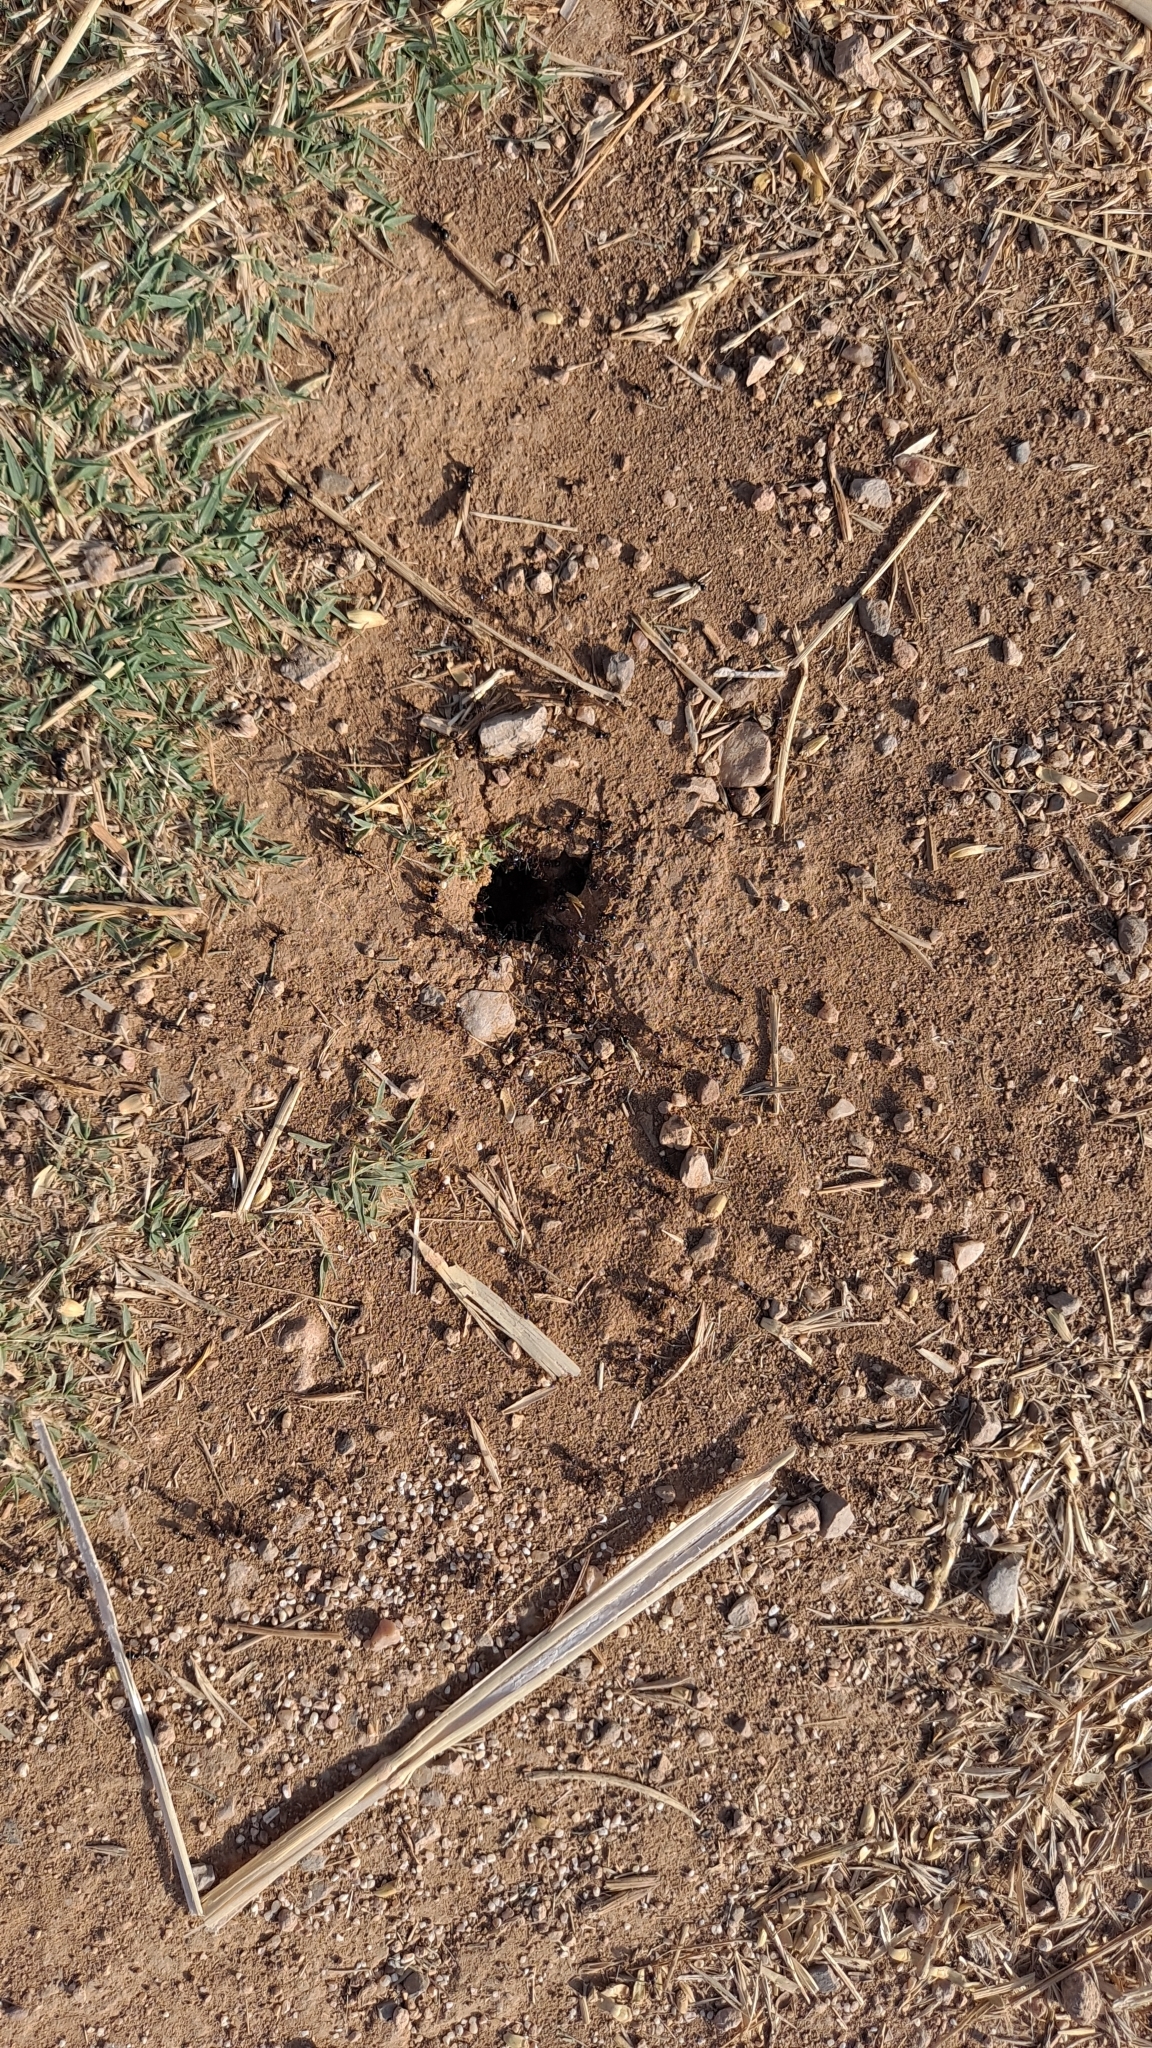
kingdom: Animalia
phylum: Arthropoda
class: Insecta
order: Hymenoptera
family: Formicidae
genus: Messor
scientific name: Messor barbarus
